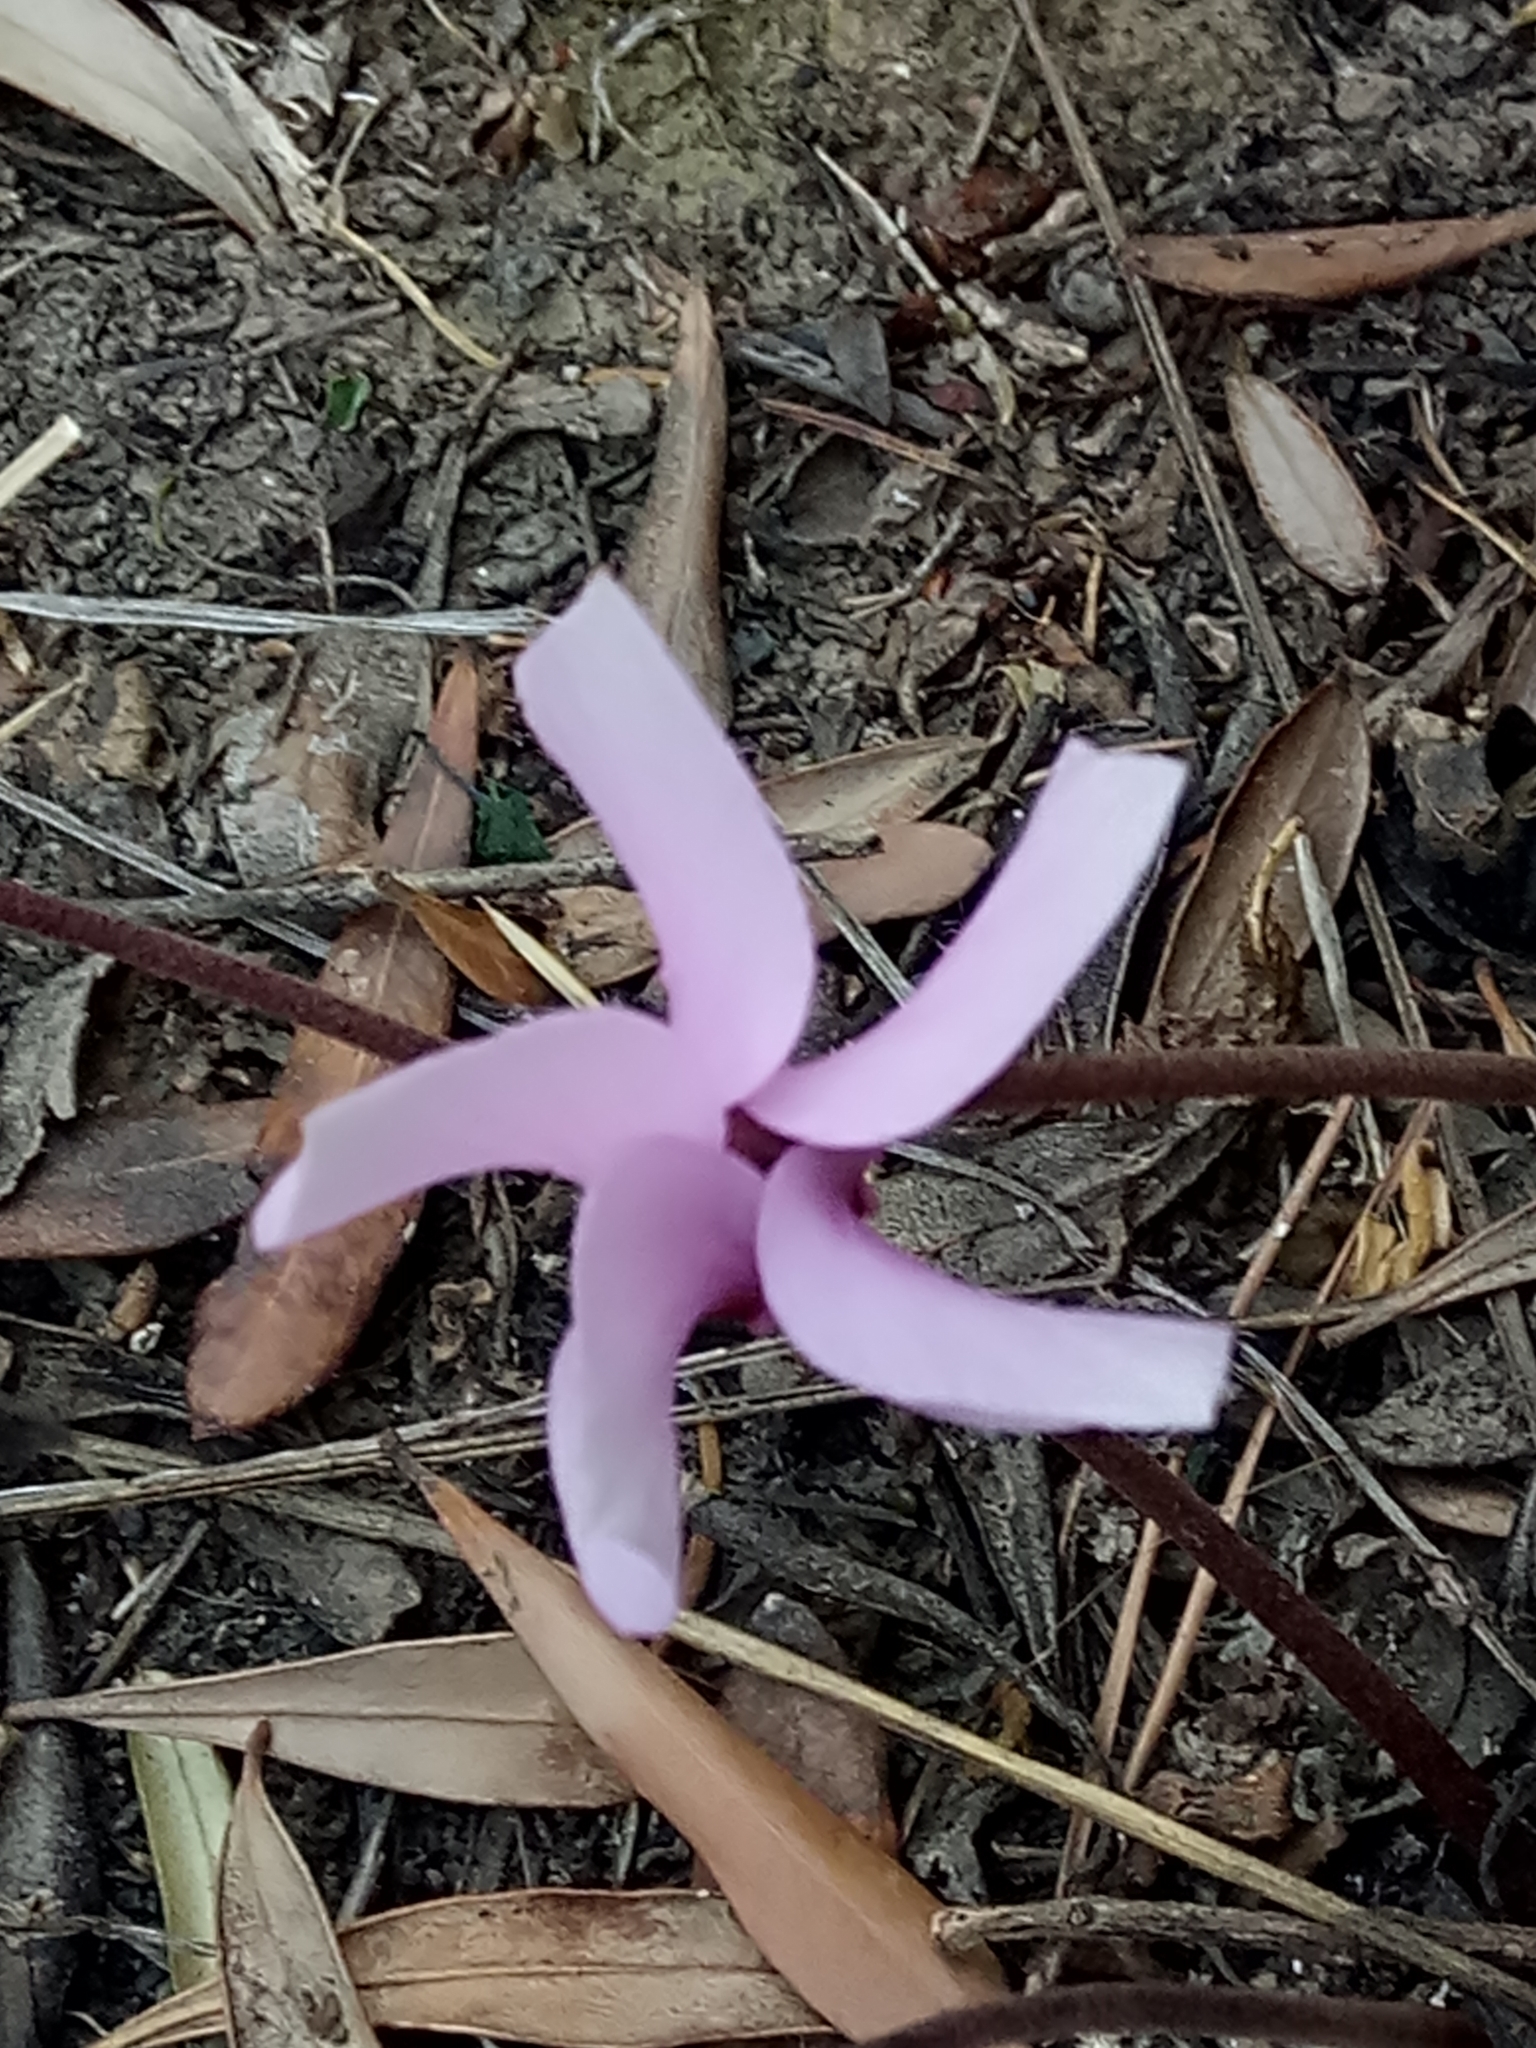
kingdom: Plantae
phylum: Tracheophyta
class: Magnoliopsida
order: Ericales
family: Primulaceae
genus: Cyclamen
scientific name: Cyclamen africanum
